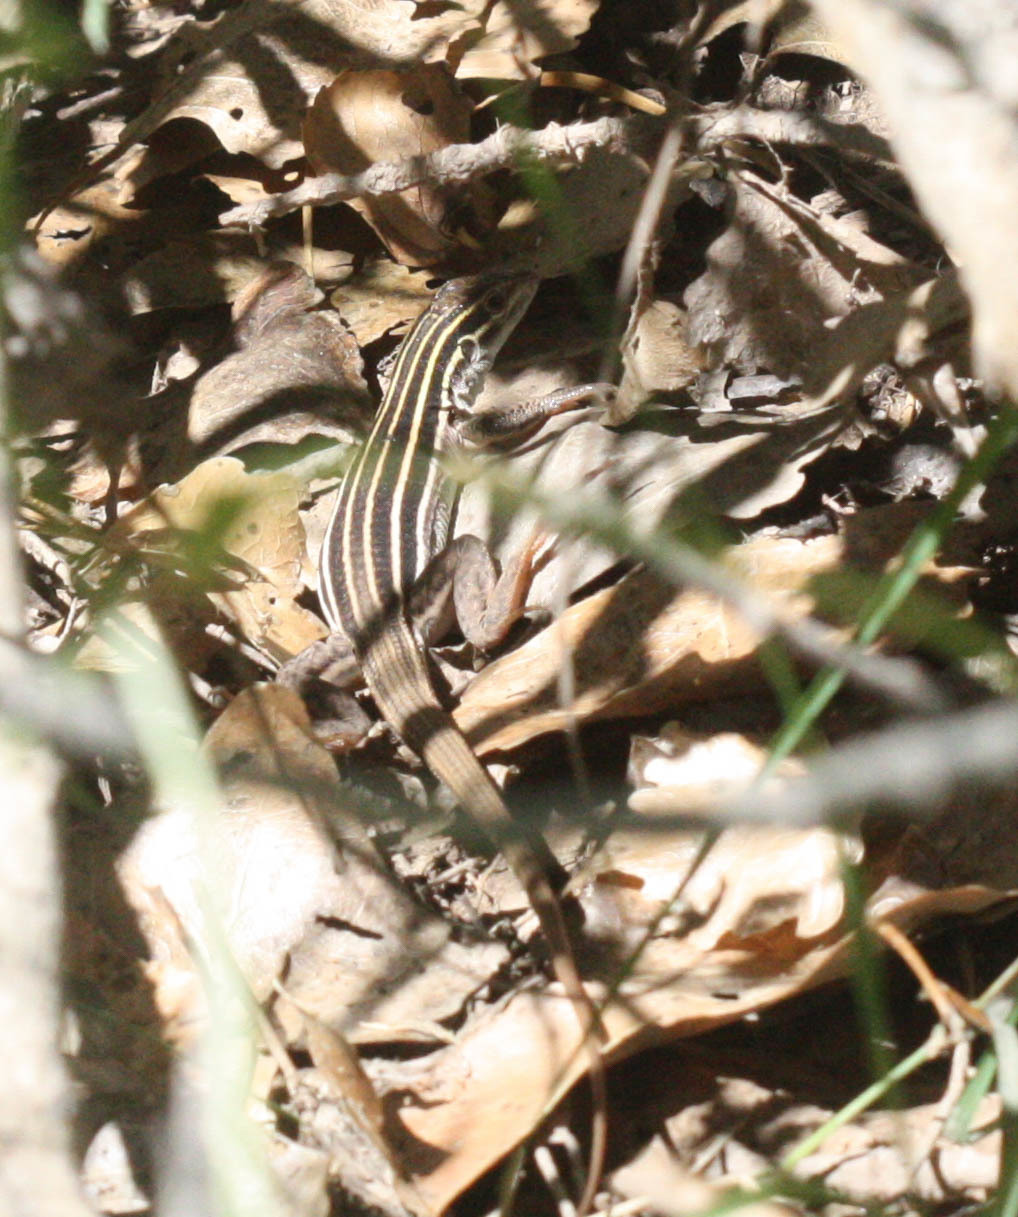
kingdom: Animalia
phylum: Chordata
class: Squamata
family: Teiidae
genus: Aspidoscelis
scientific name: Aspidoscelis uniparens
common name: Desert grassland whiptail
